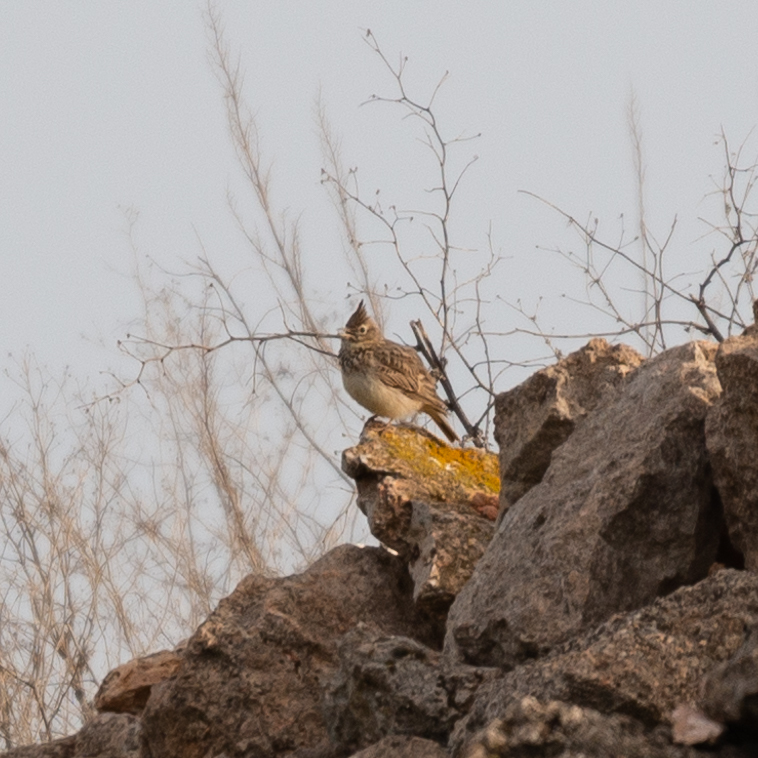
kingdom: Animalia
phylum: Chordata
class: Aves
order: Passeriformes
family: Alaudidae
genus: Galerida
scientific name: Galerida theklae
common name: Thekla lark
